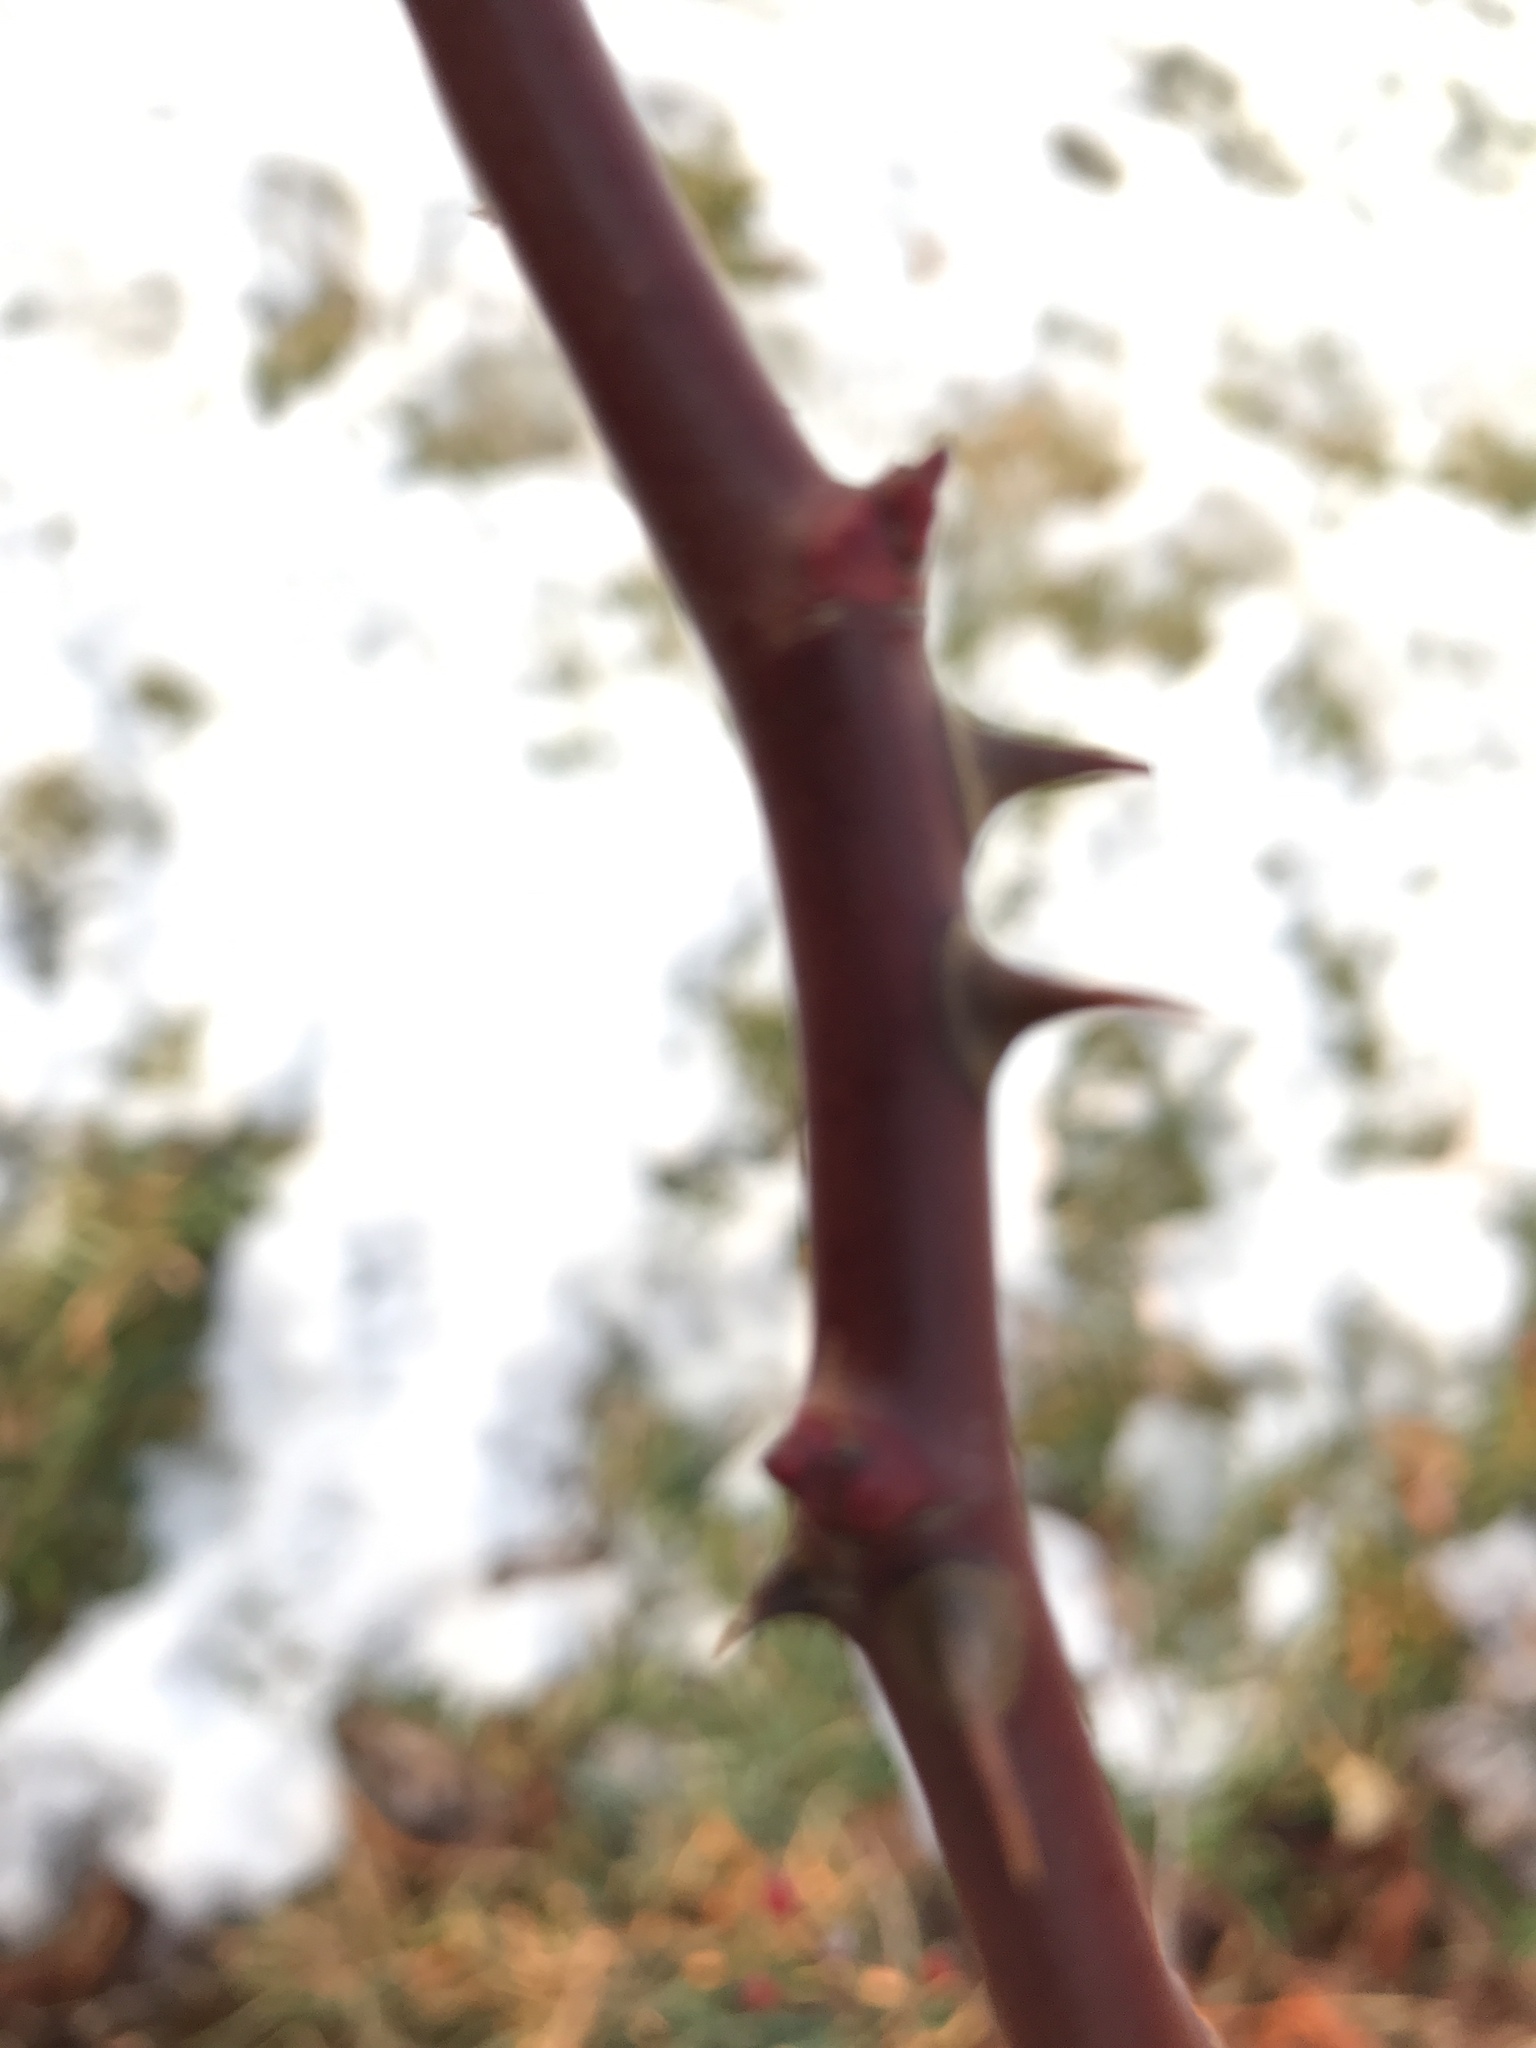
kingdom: Plantae
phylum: Tracheophyta
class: Magnoliopsida
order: Rosales
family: Rosaceae
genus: Rosa
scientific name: Rosa multiflora
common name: Multiflora rose
